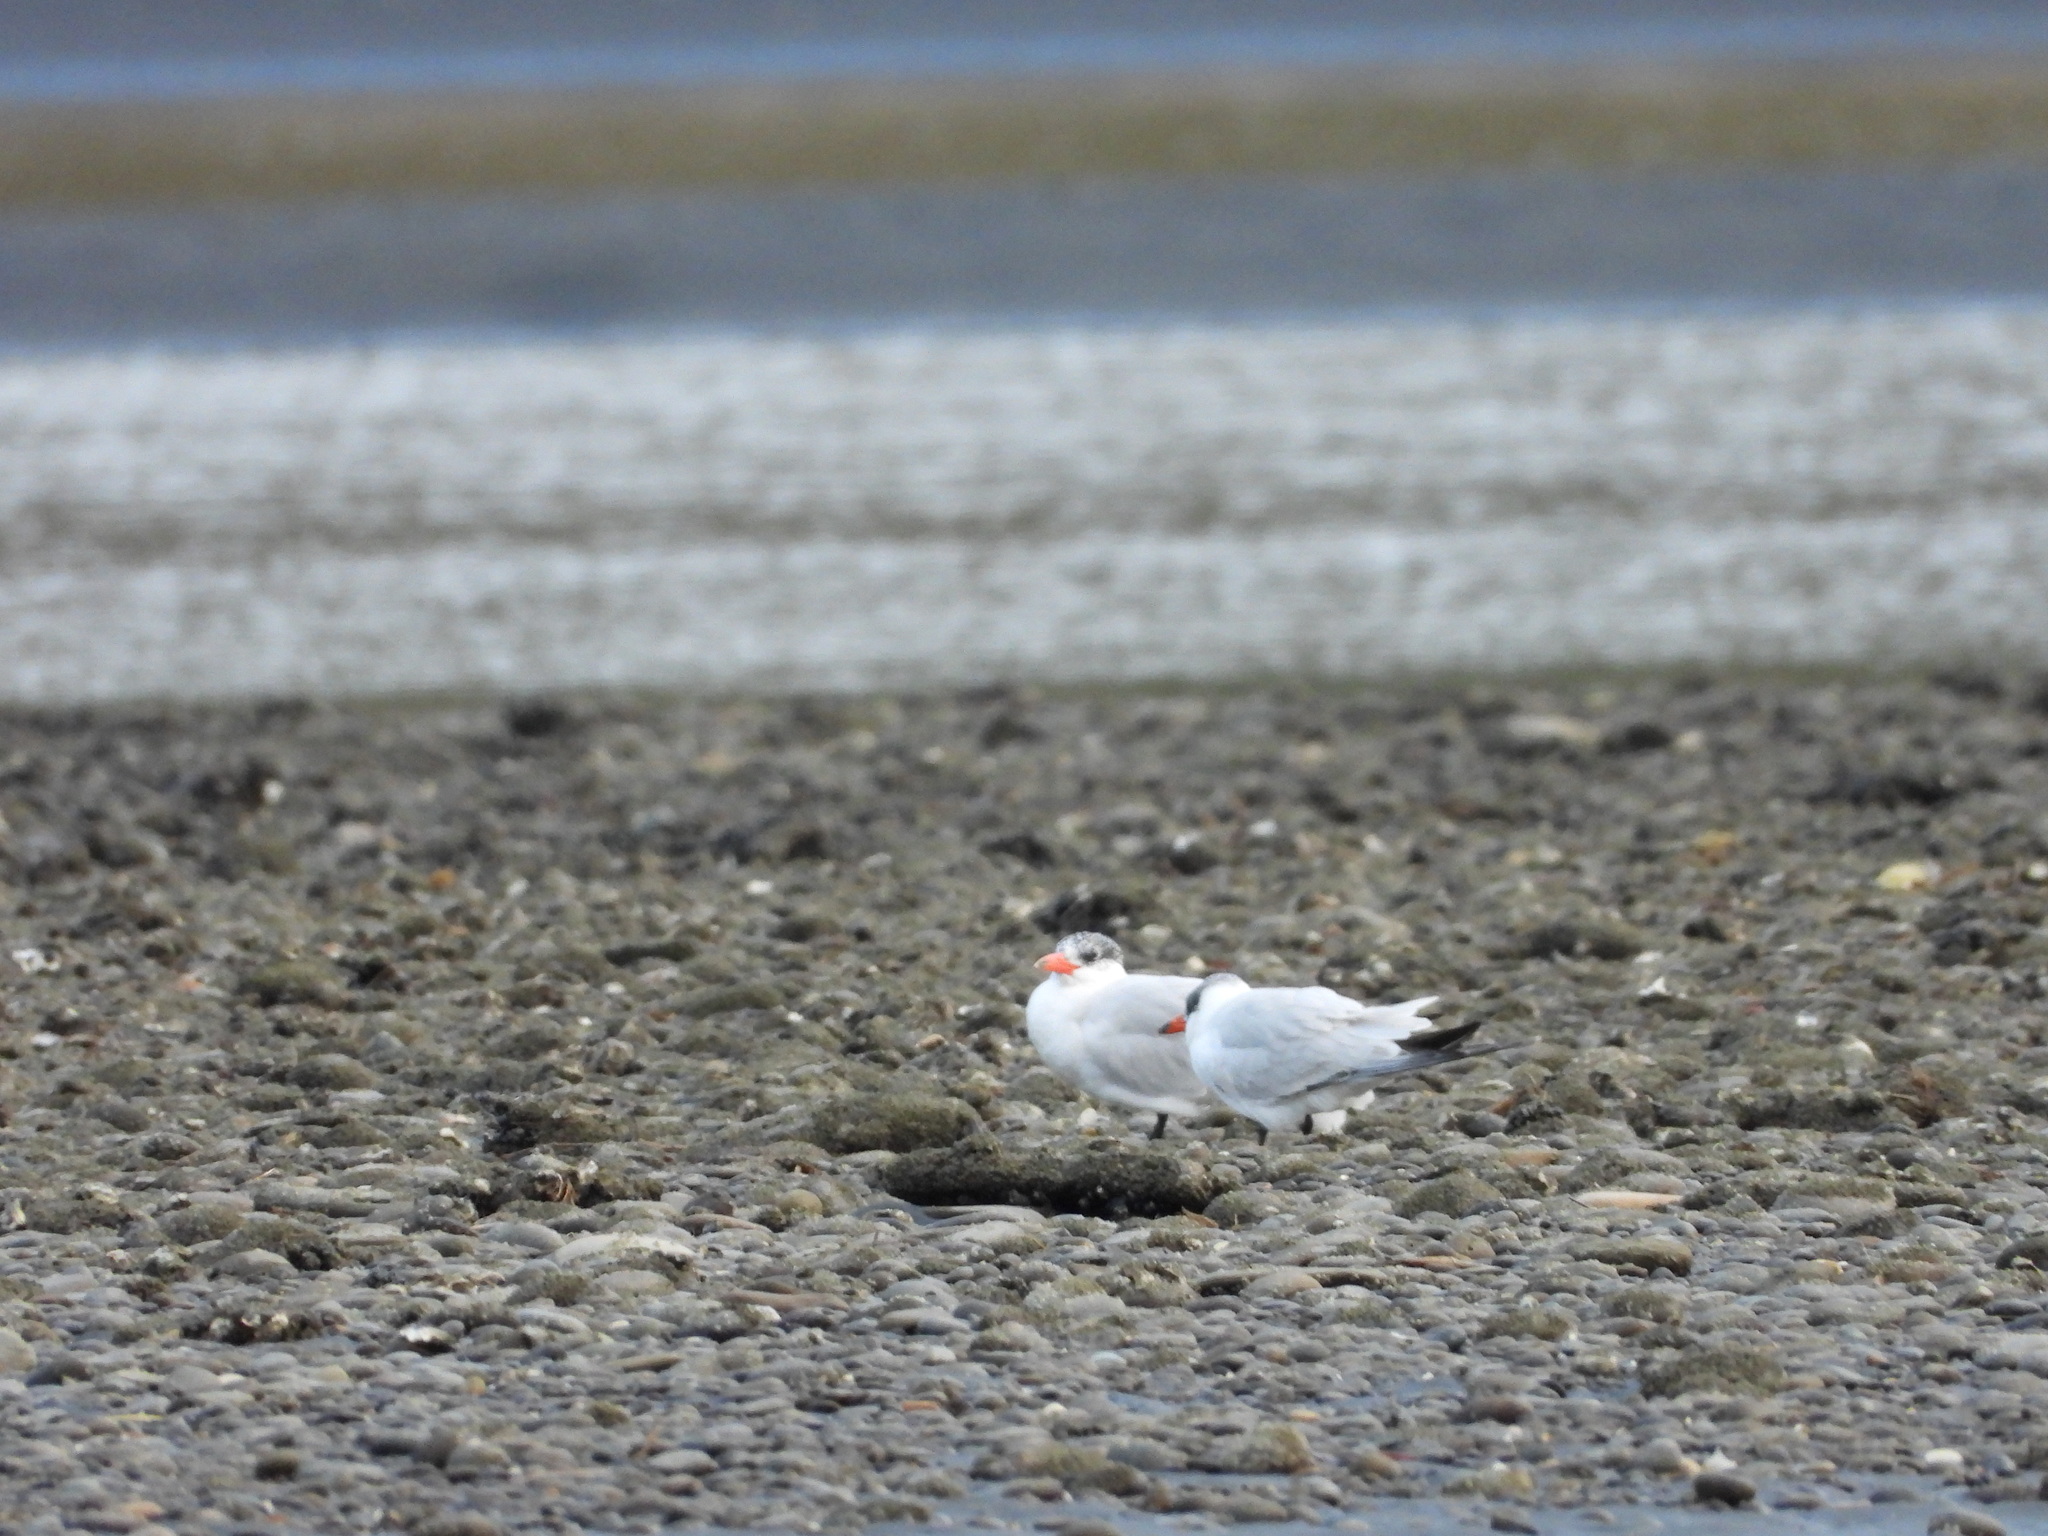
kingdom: Animalia
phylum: Chordata
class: Aves
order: Charadriiformes
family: Laridae
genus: Hydroprogne
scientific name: Hydroprogne caspia
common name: Caspian tern
